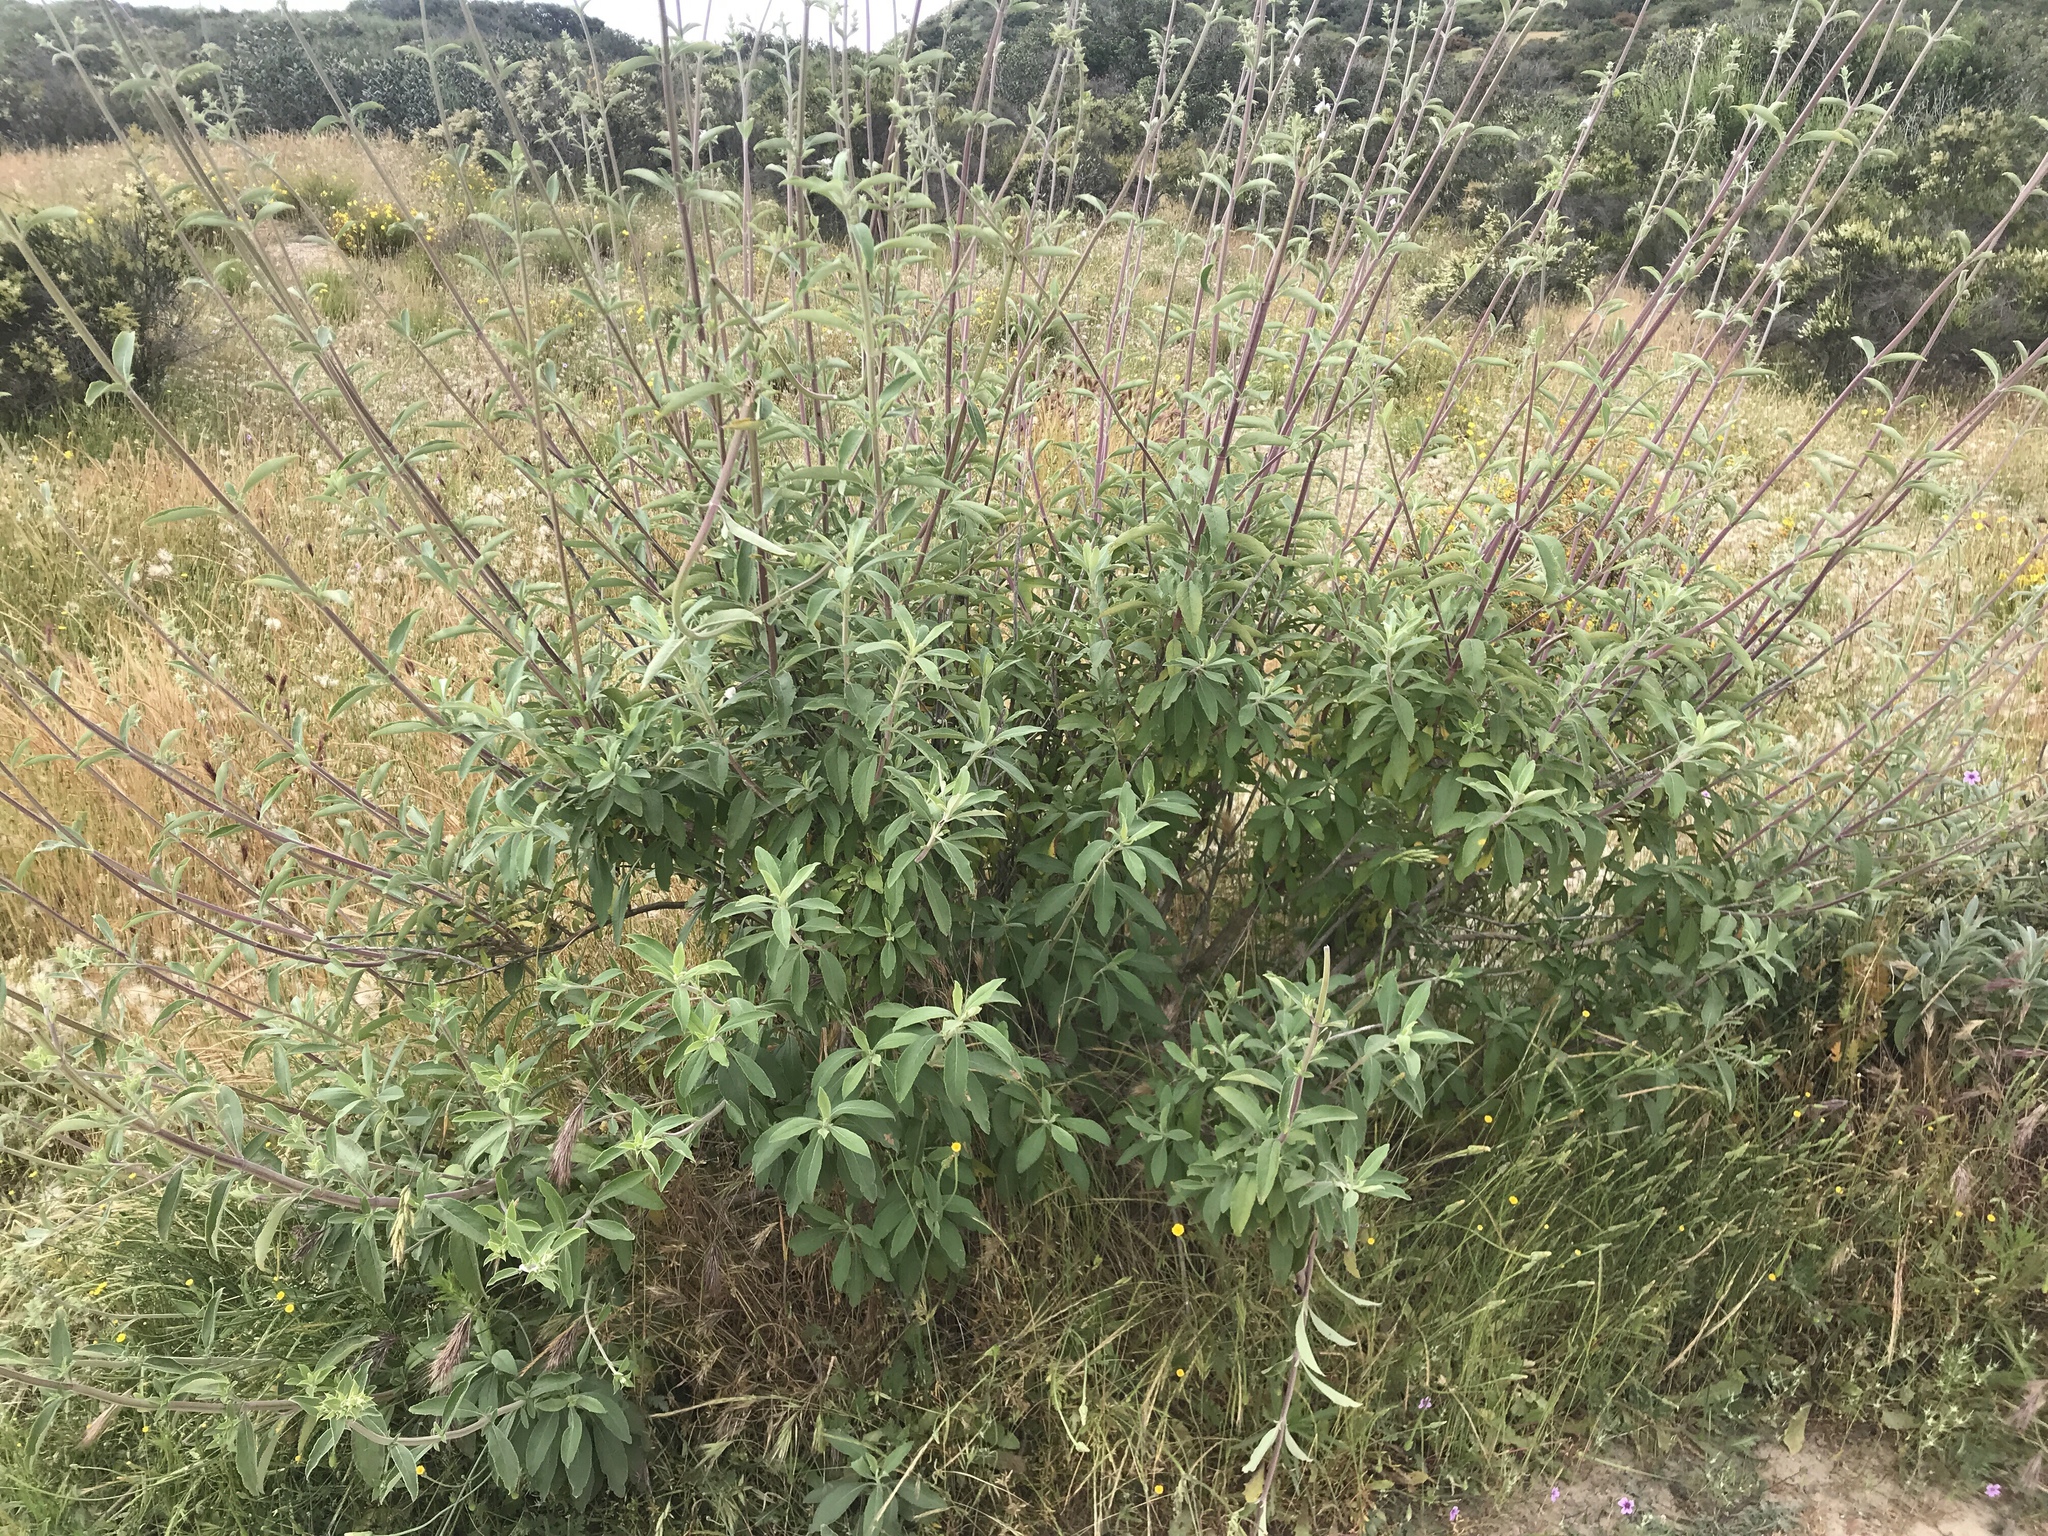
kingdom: Plantae
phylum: Tracheophyta
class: Magnoliopsida
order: Lamiales
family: Lamiaceae
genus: Salvia
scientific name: Salvia apiana
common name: White sage
